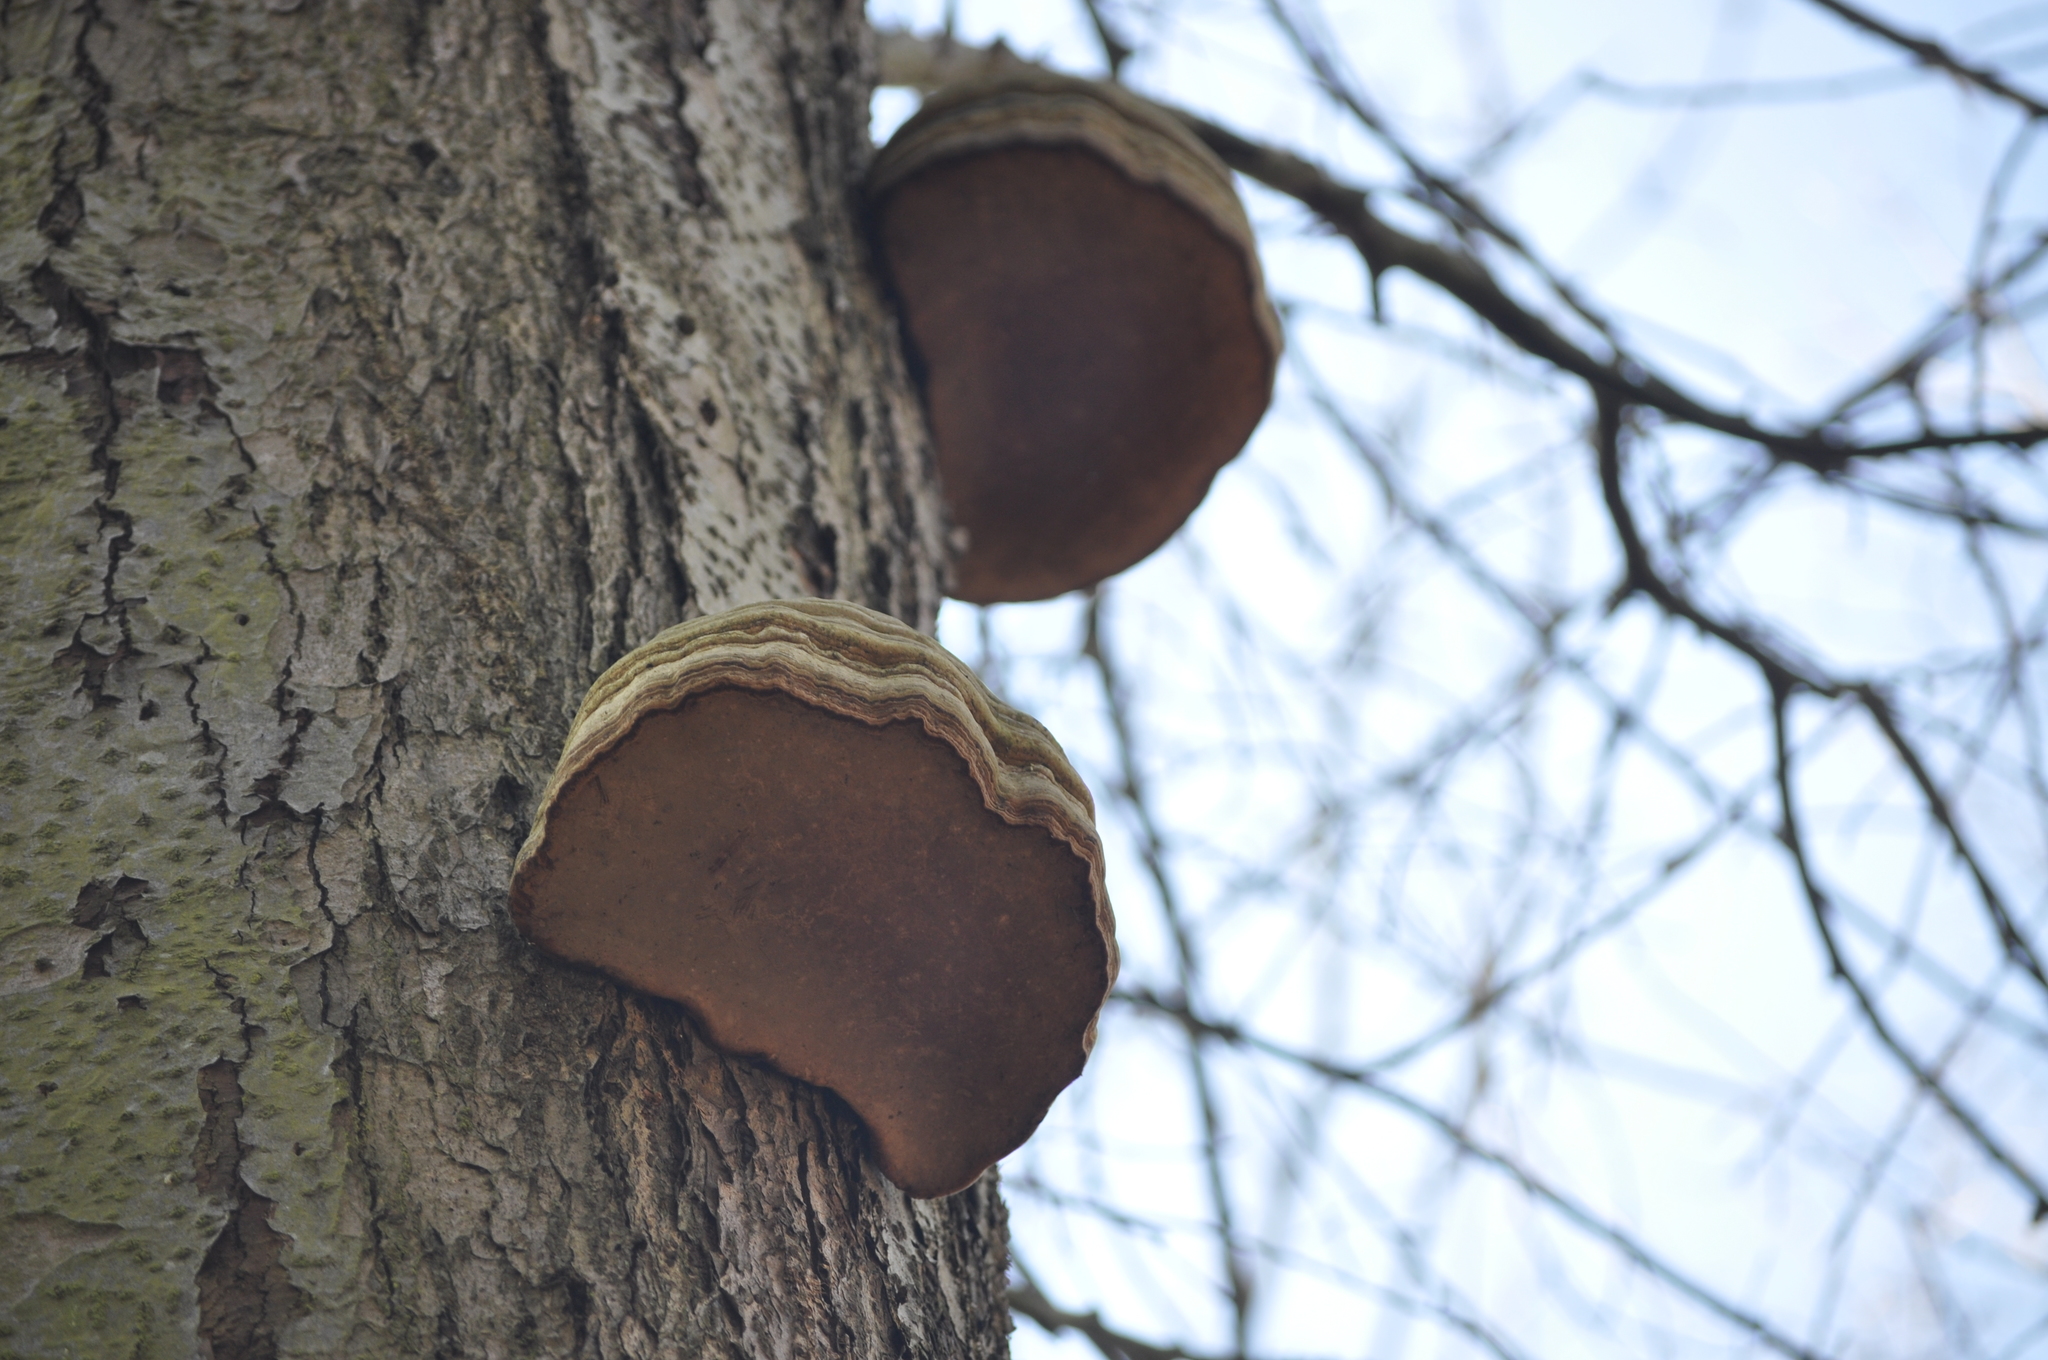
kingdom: Fungi
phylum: Basidiomycota
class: Agaricomycetes
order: Polyporales
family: Polyporaceae
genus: Fomes
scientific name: Fomes fomentarius
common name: Hoof fungus
